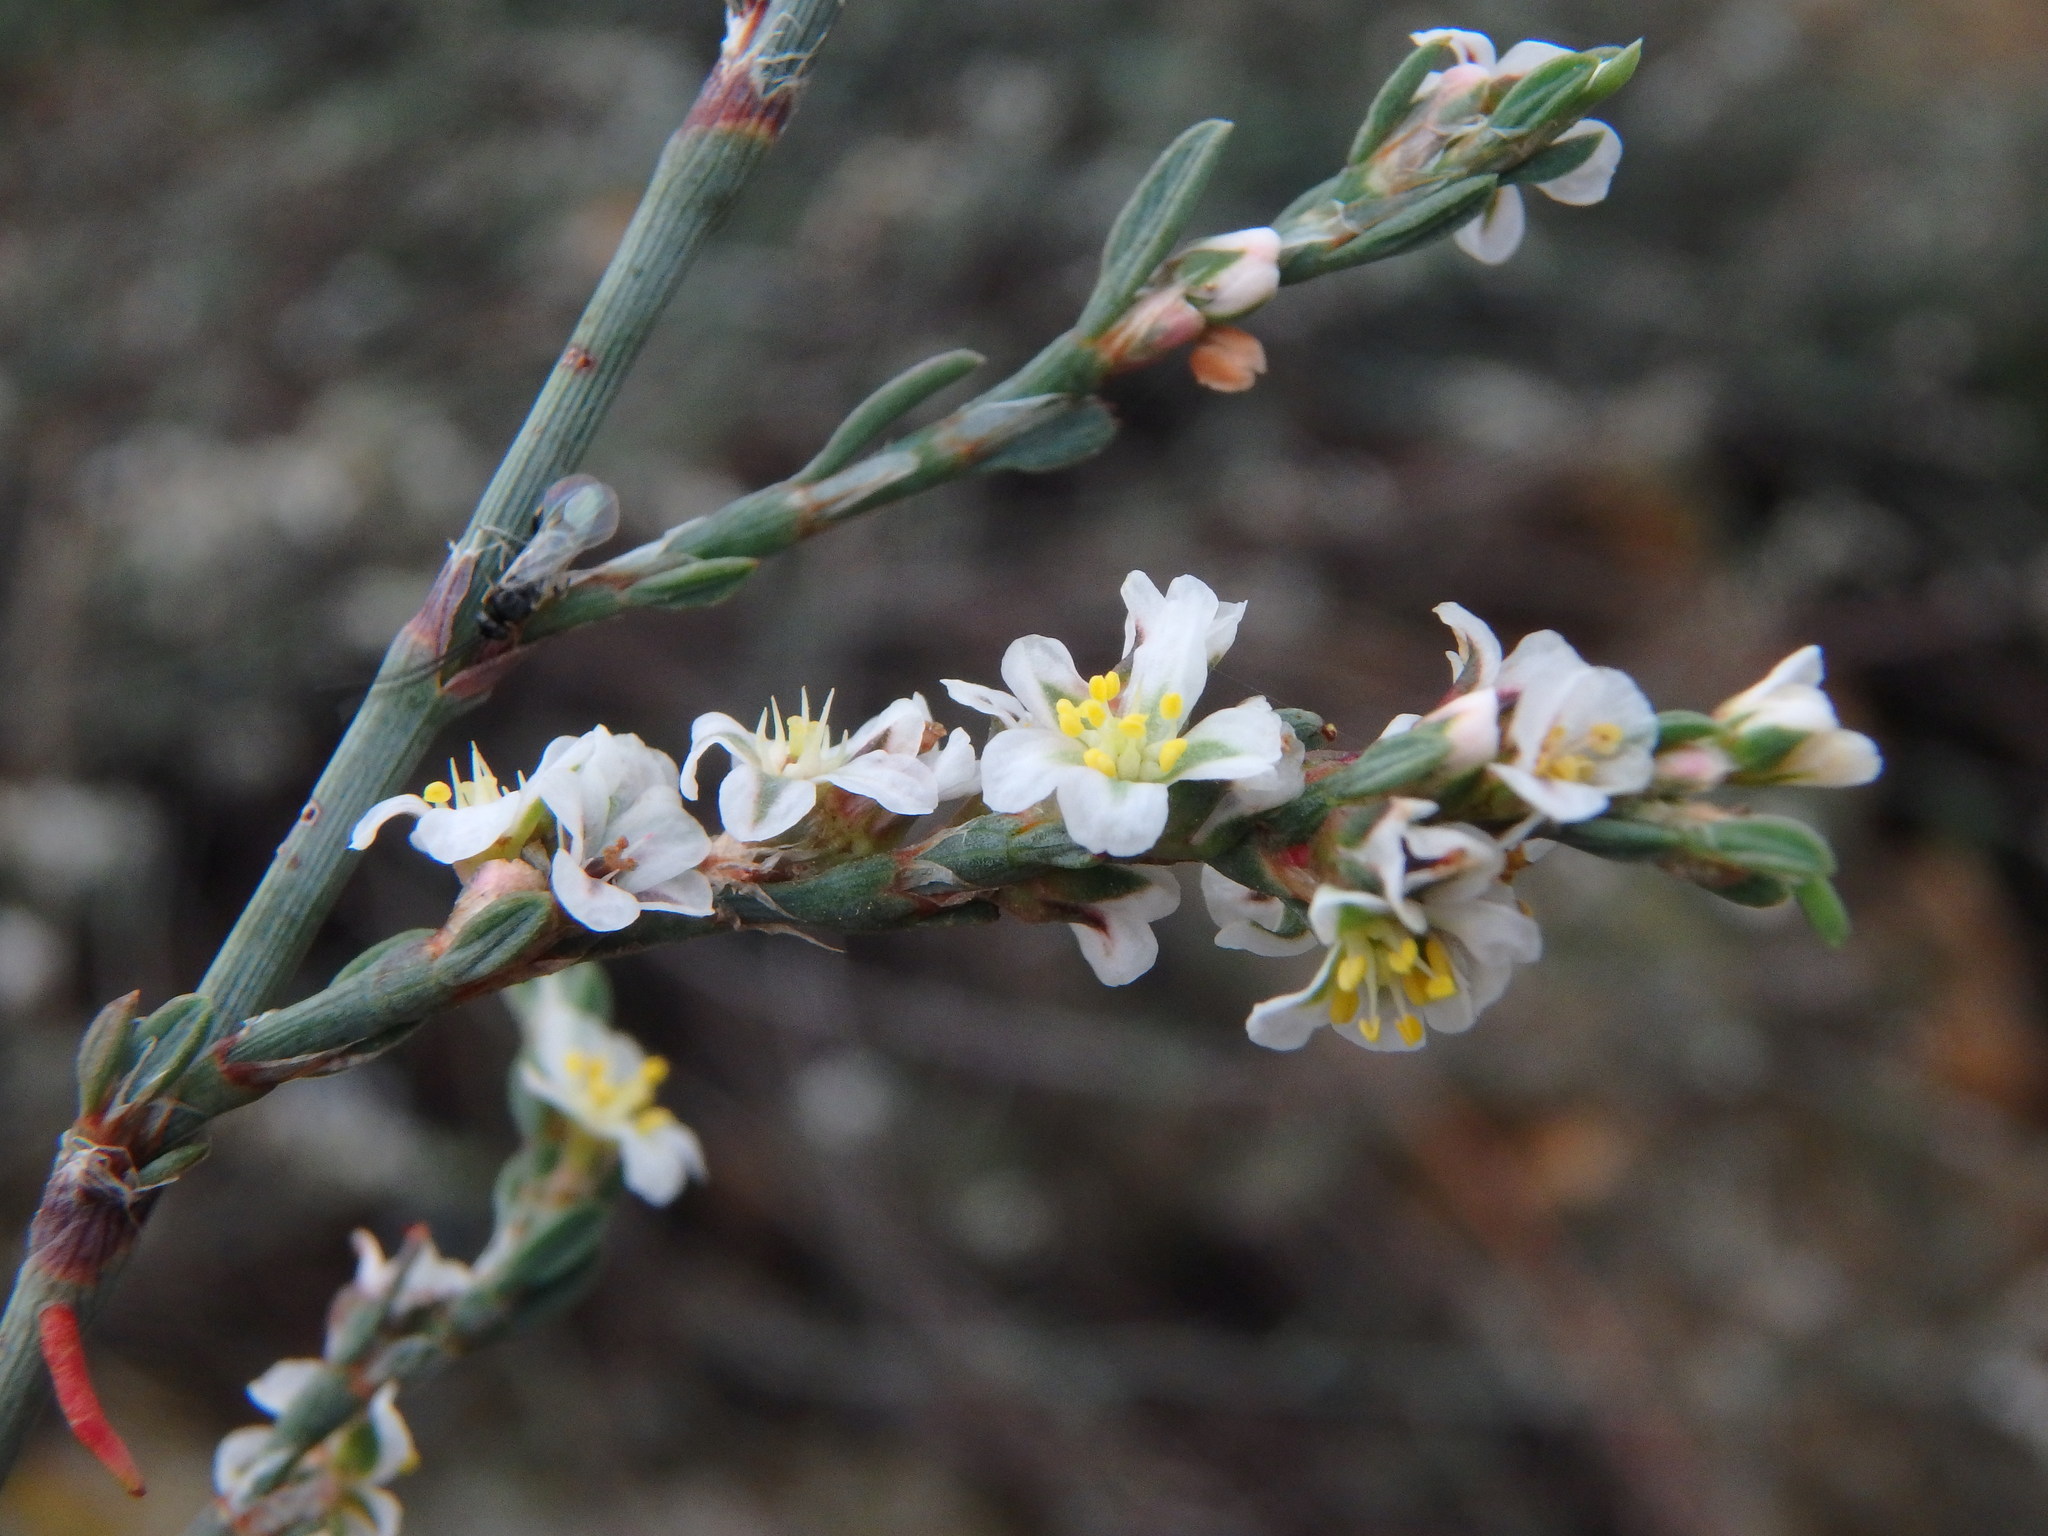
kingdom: Plantae
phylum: Tracheophyta
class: Magnoliopsida
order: Caryophyllales
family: Polygonaceae
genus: Polygonum
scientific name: Polygonum equisetiforme
